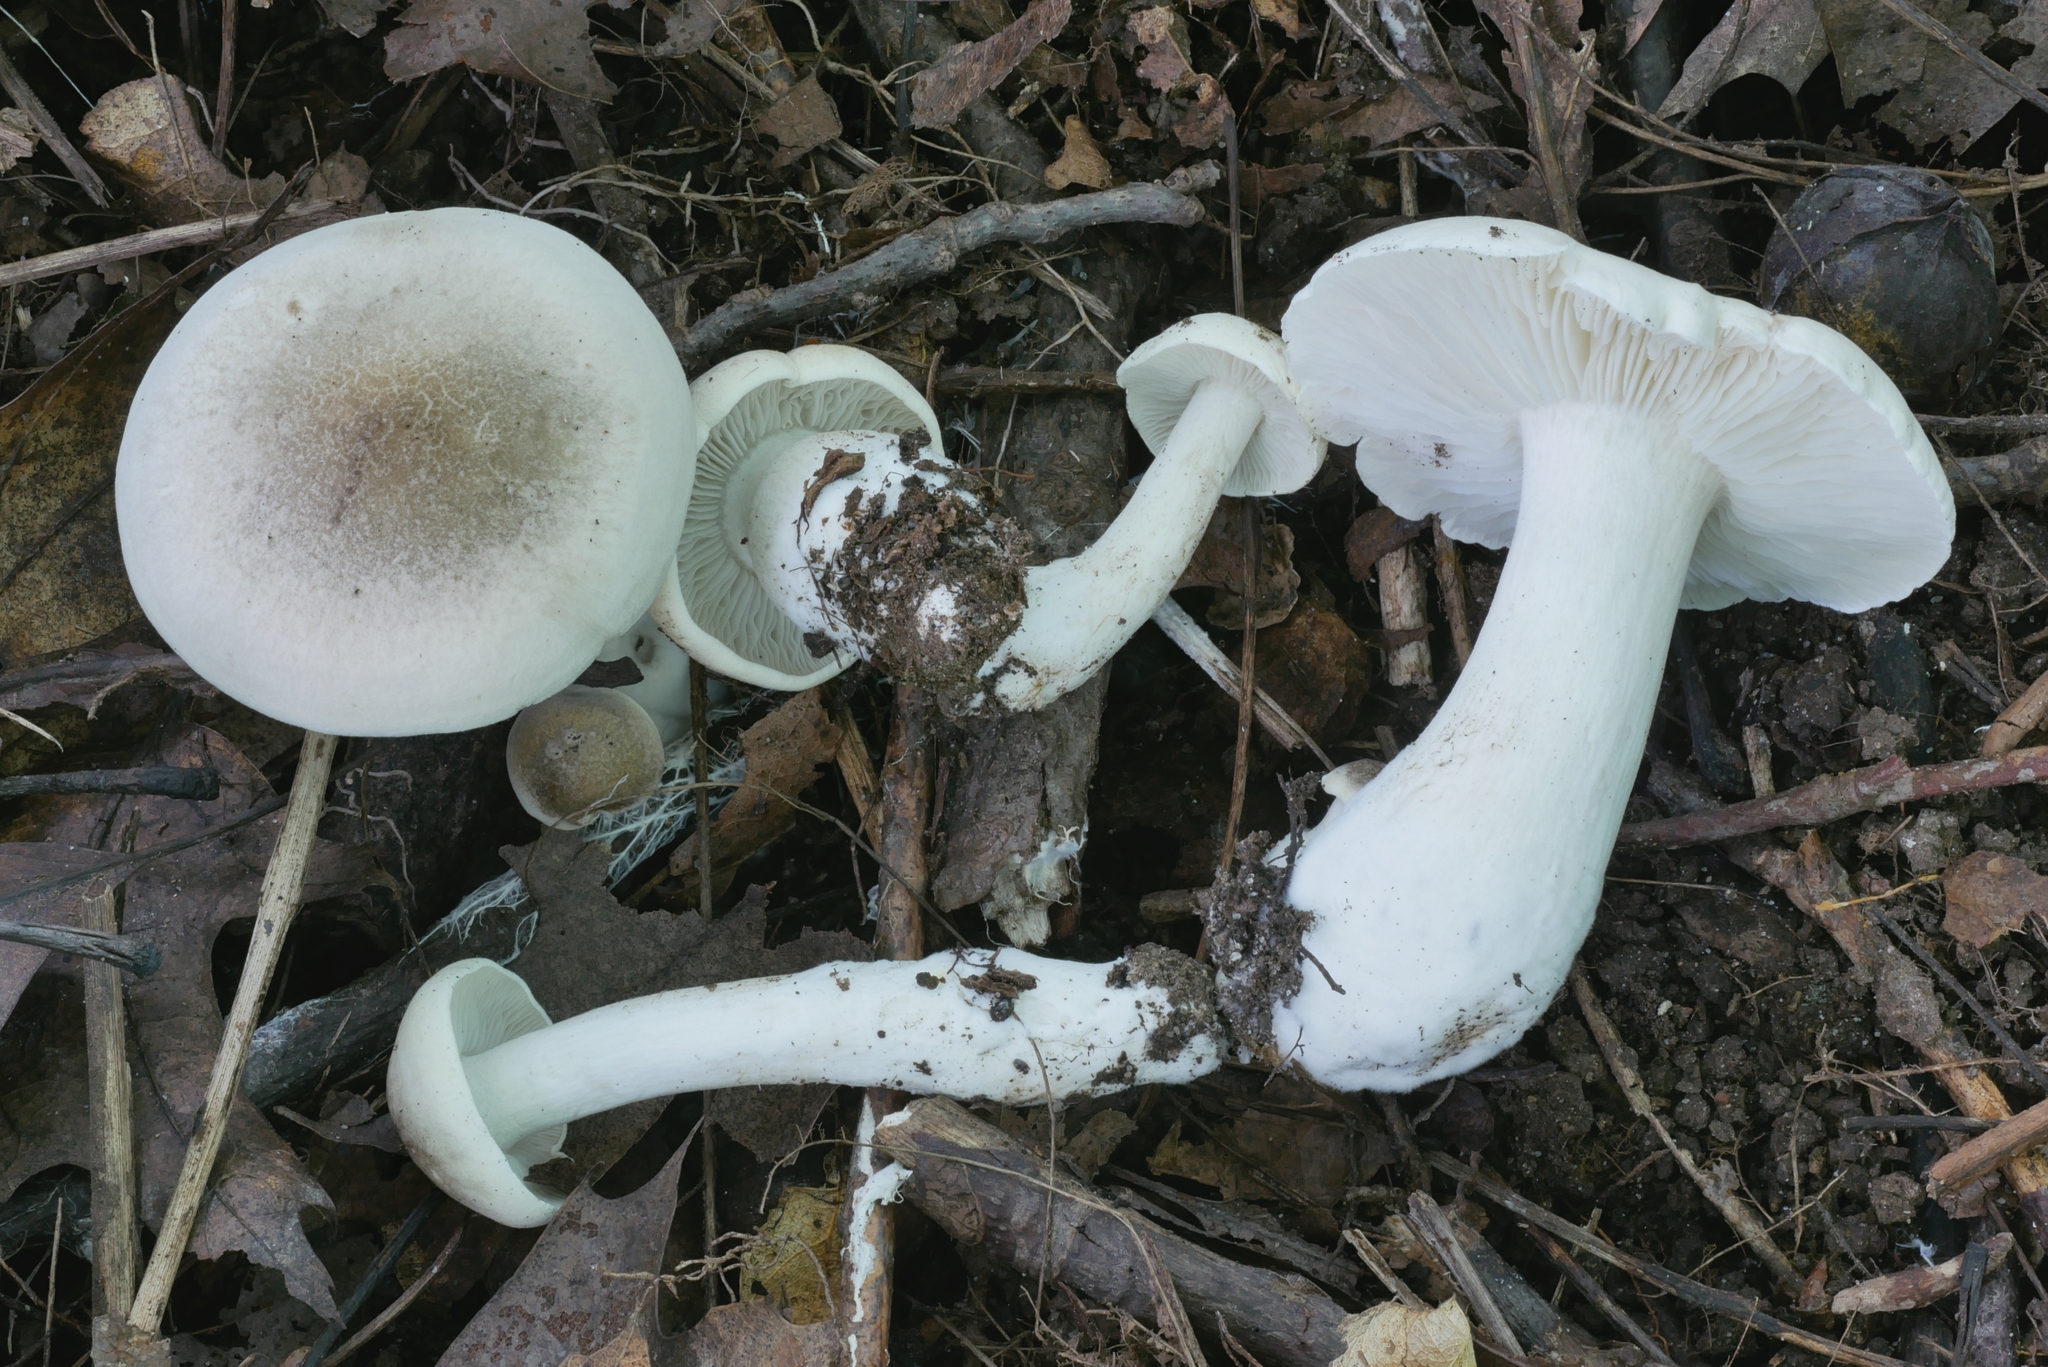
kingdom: Fungi
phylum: Basidiomycota
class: Agaricomycetes
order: Agaricales
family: Tricholomataceae
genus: Tricholoma
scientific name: Tricholoma
